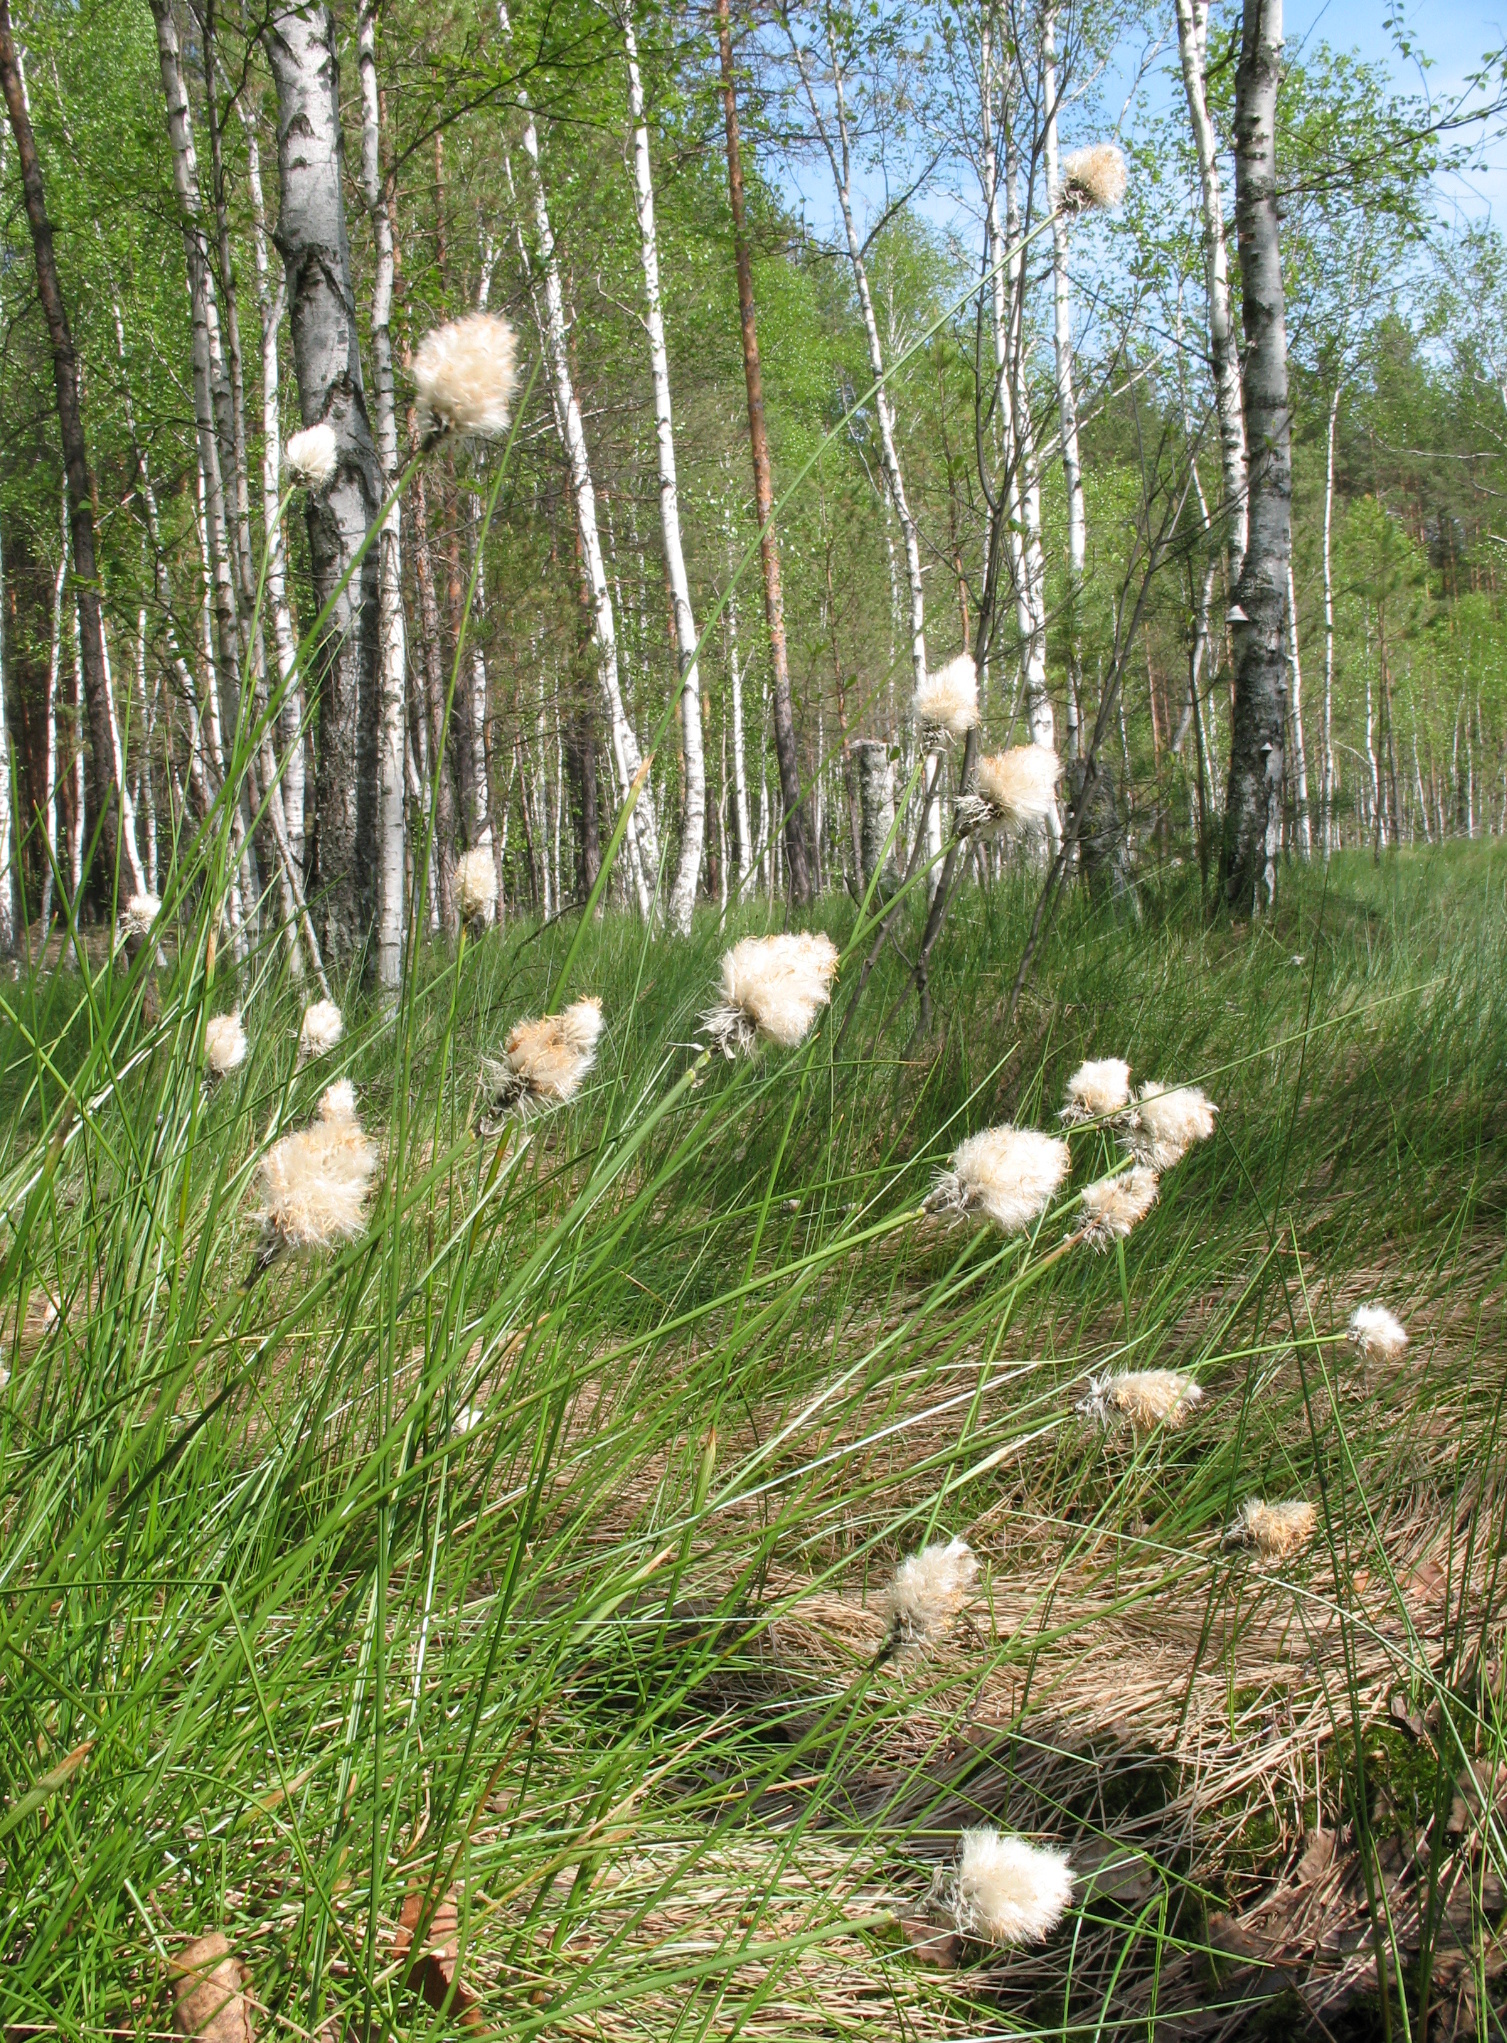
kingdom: Plantae
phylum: Tracheophyta
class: Liliopsida
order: Poales
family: Cyperaceae
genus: Eriophorum
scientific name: Eriophorum vaginatum
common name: Hare's-tail cottongrass
